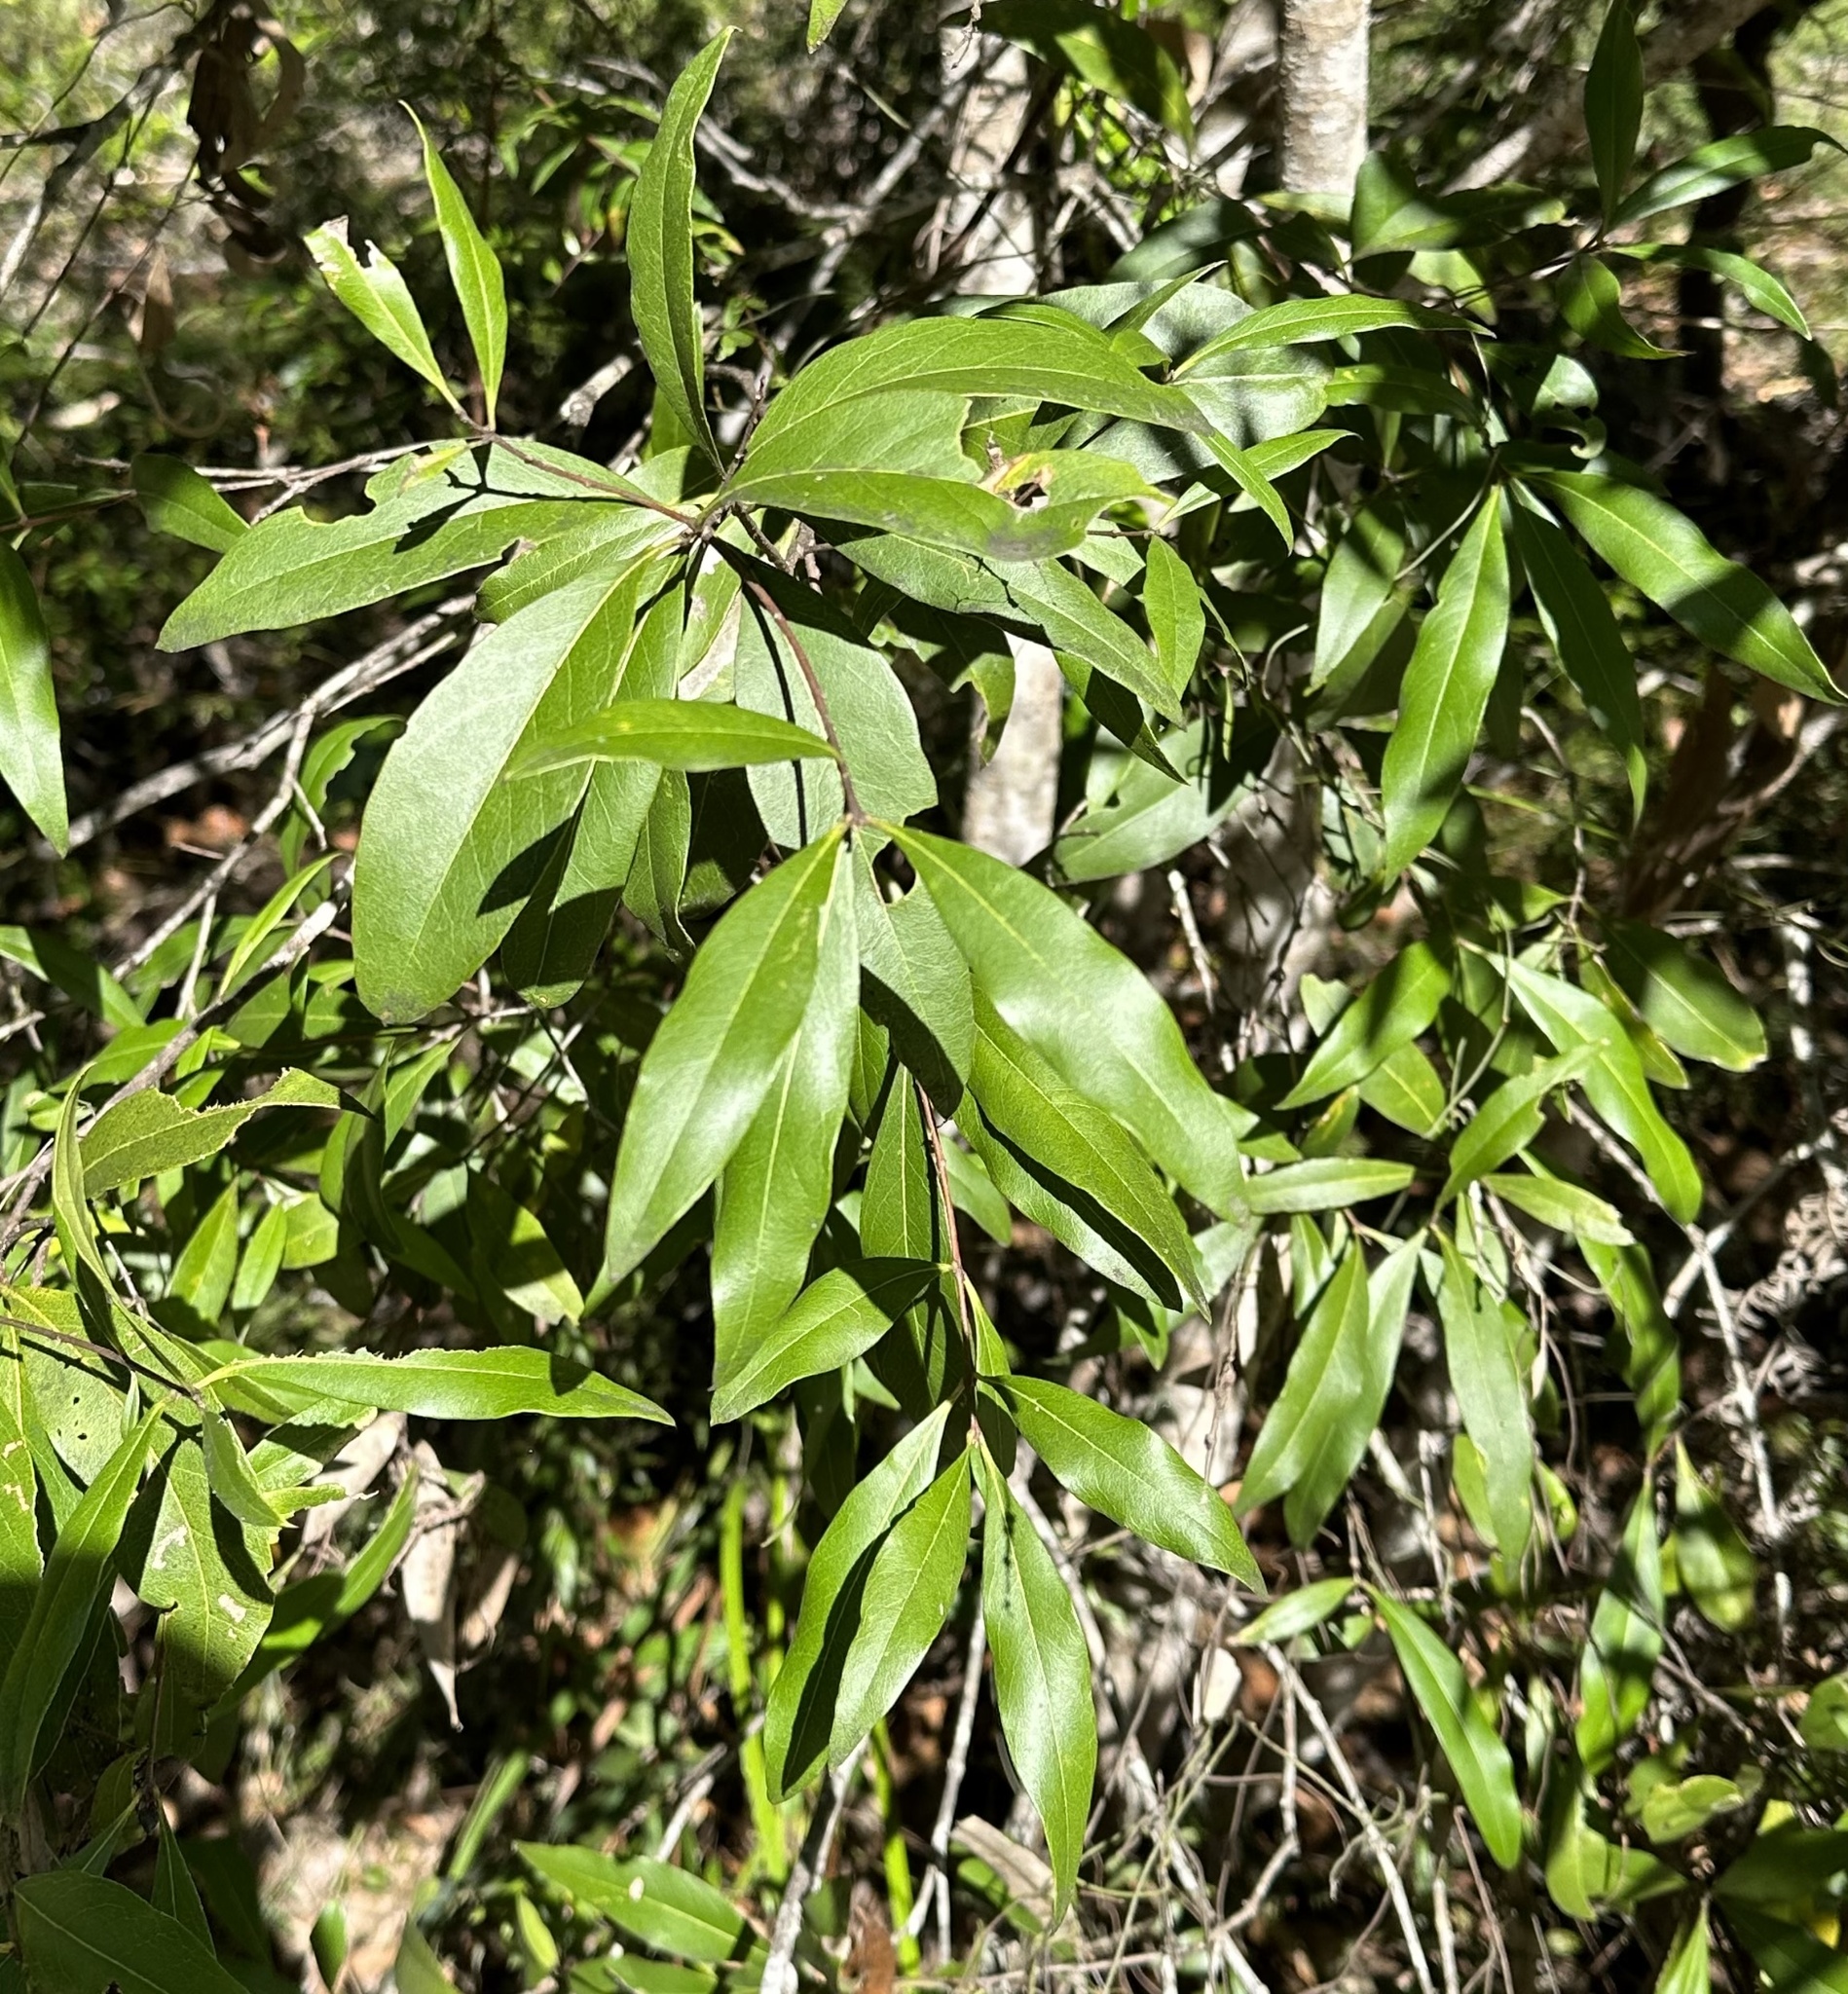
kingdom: Plantae
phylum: Tracheophyta
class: Magnoliopsida
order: Celastrales
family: Celastraceae
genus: Denhamia
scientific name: Denhamia celastroides
